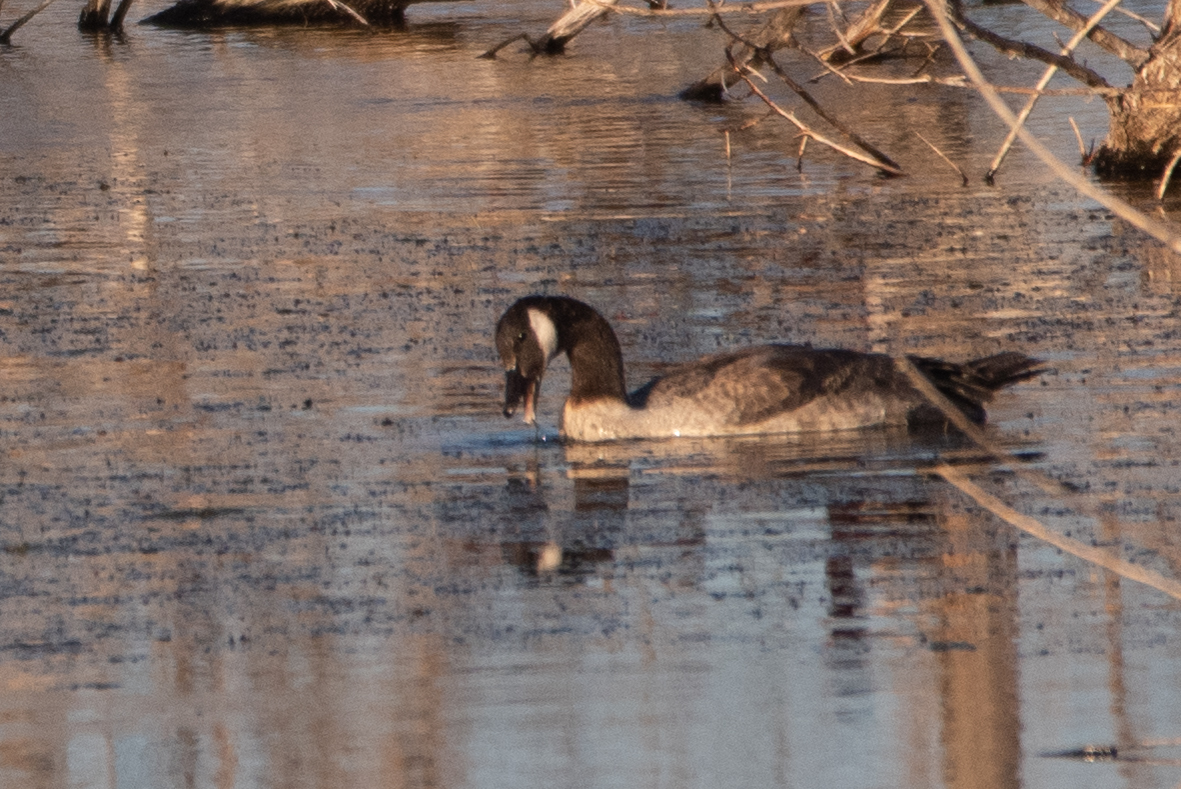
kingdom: Animalia
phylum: Chordata
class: Aves
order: Anseriformes
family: Anatidae
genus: Branta
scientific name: Branta canadensis
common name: Canada goose
